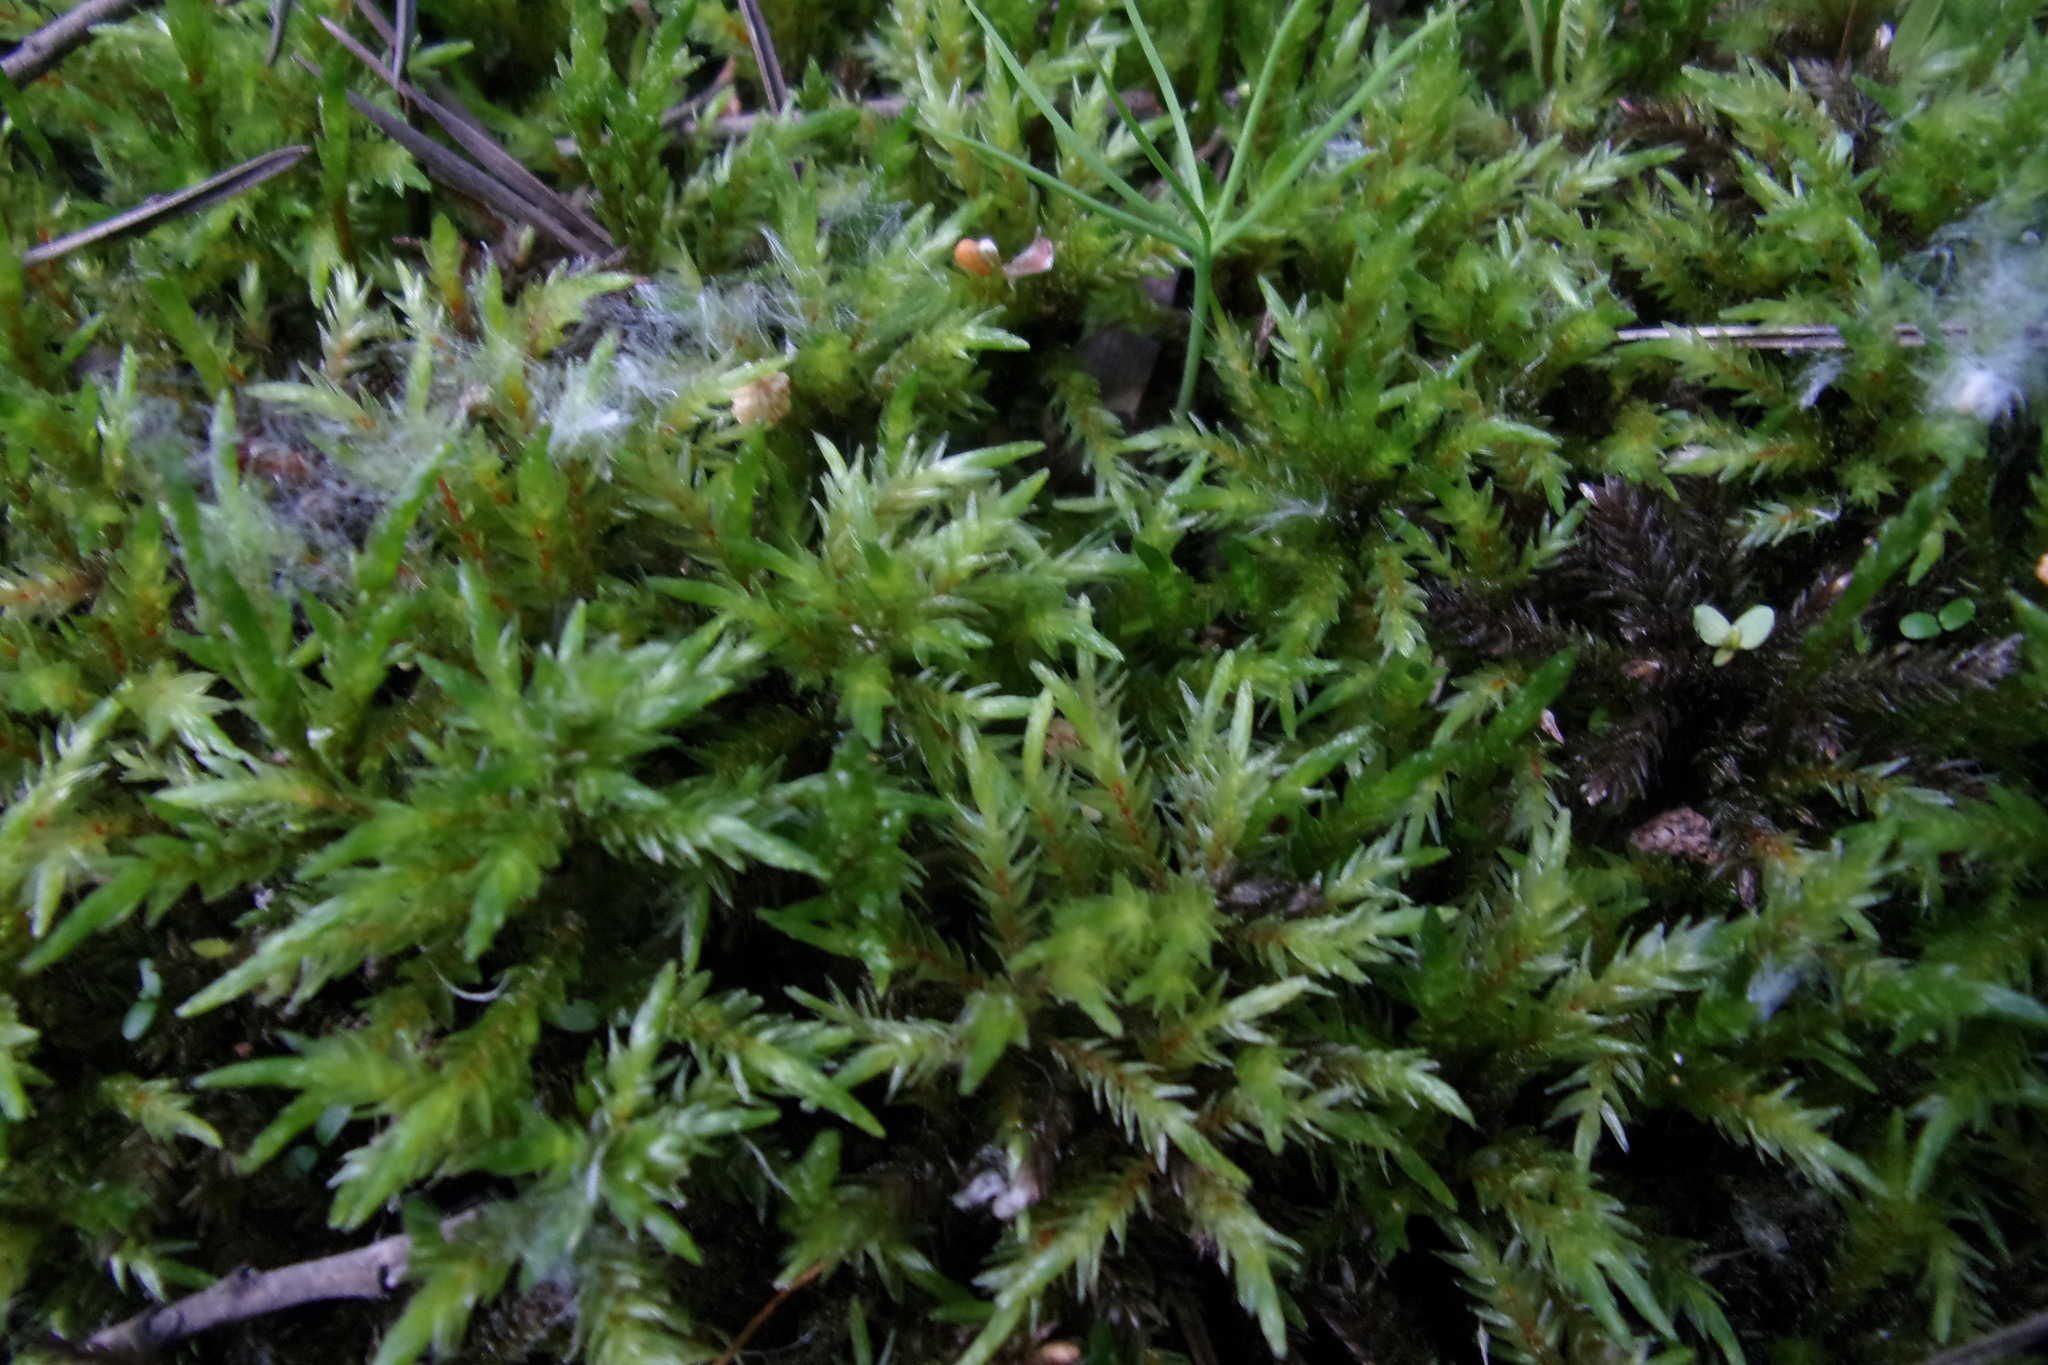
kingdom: Plantae
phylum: Bryophyta
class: Bryopsida
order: Hypnales
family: Climaciaceae
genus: Climacium
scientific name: Climacium dendroides
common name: Northern tree moss
